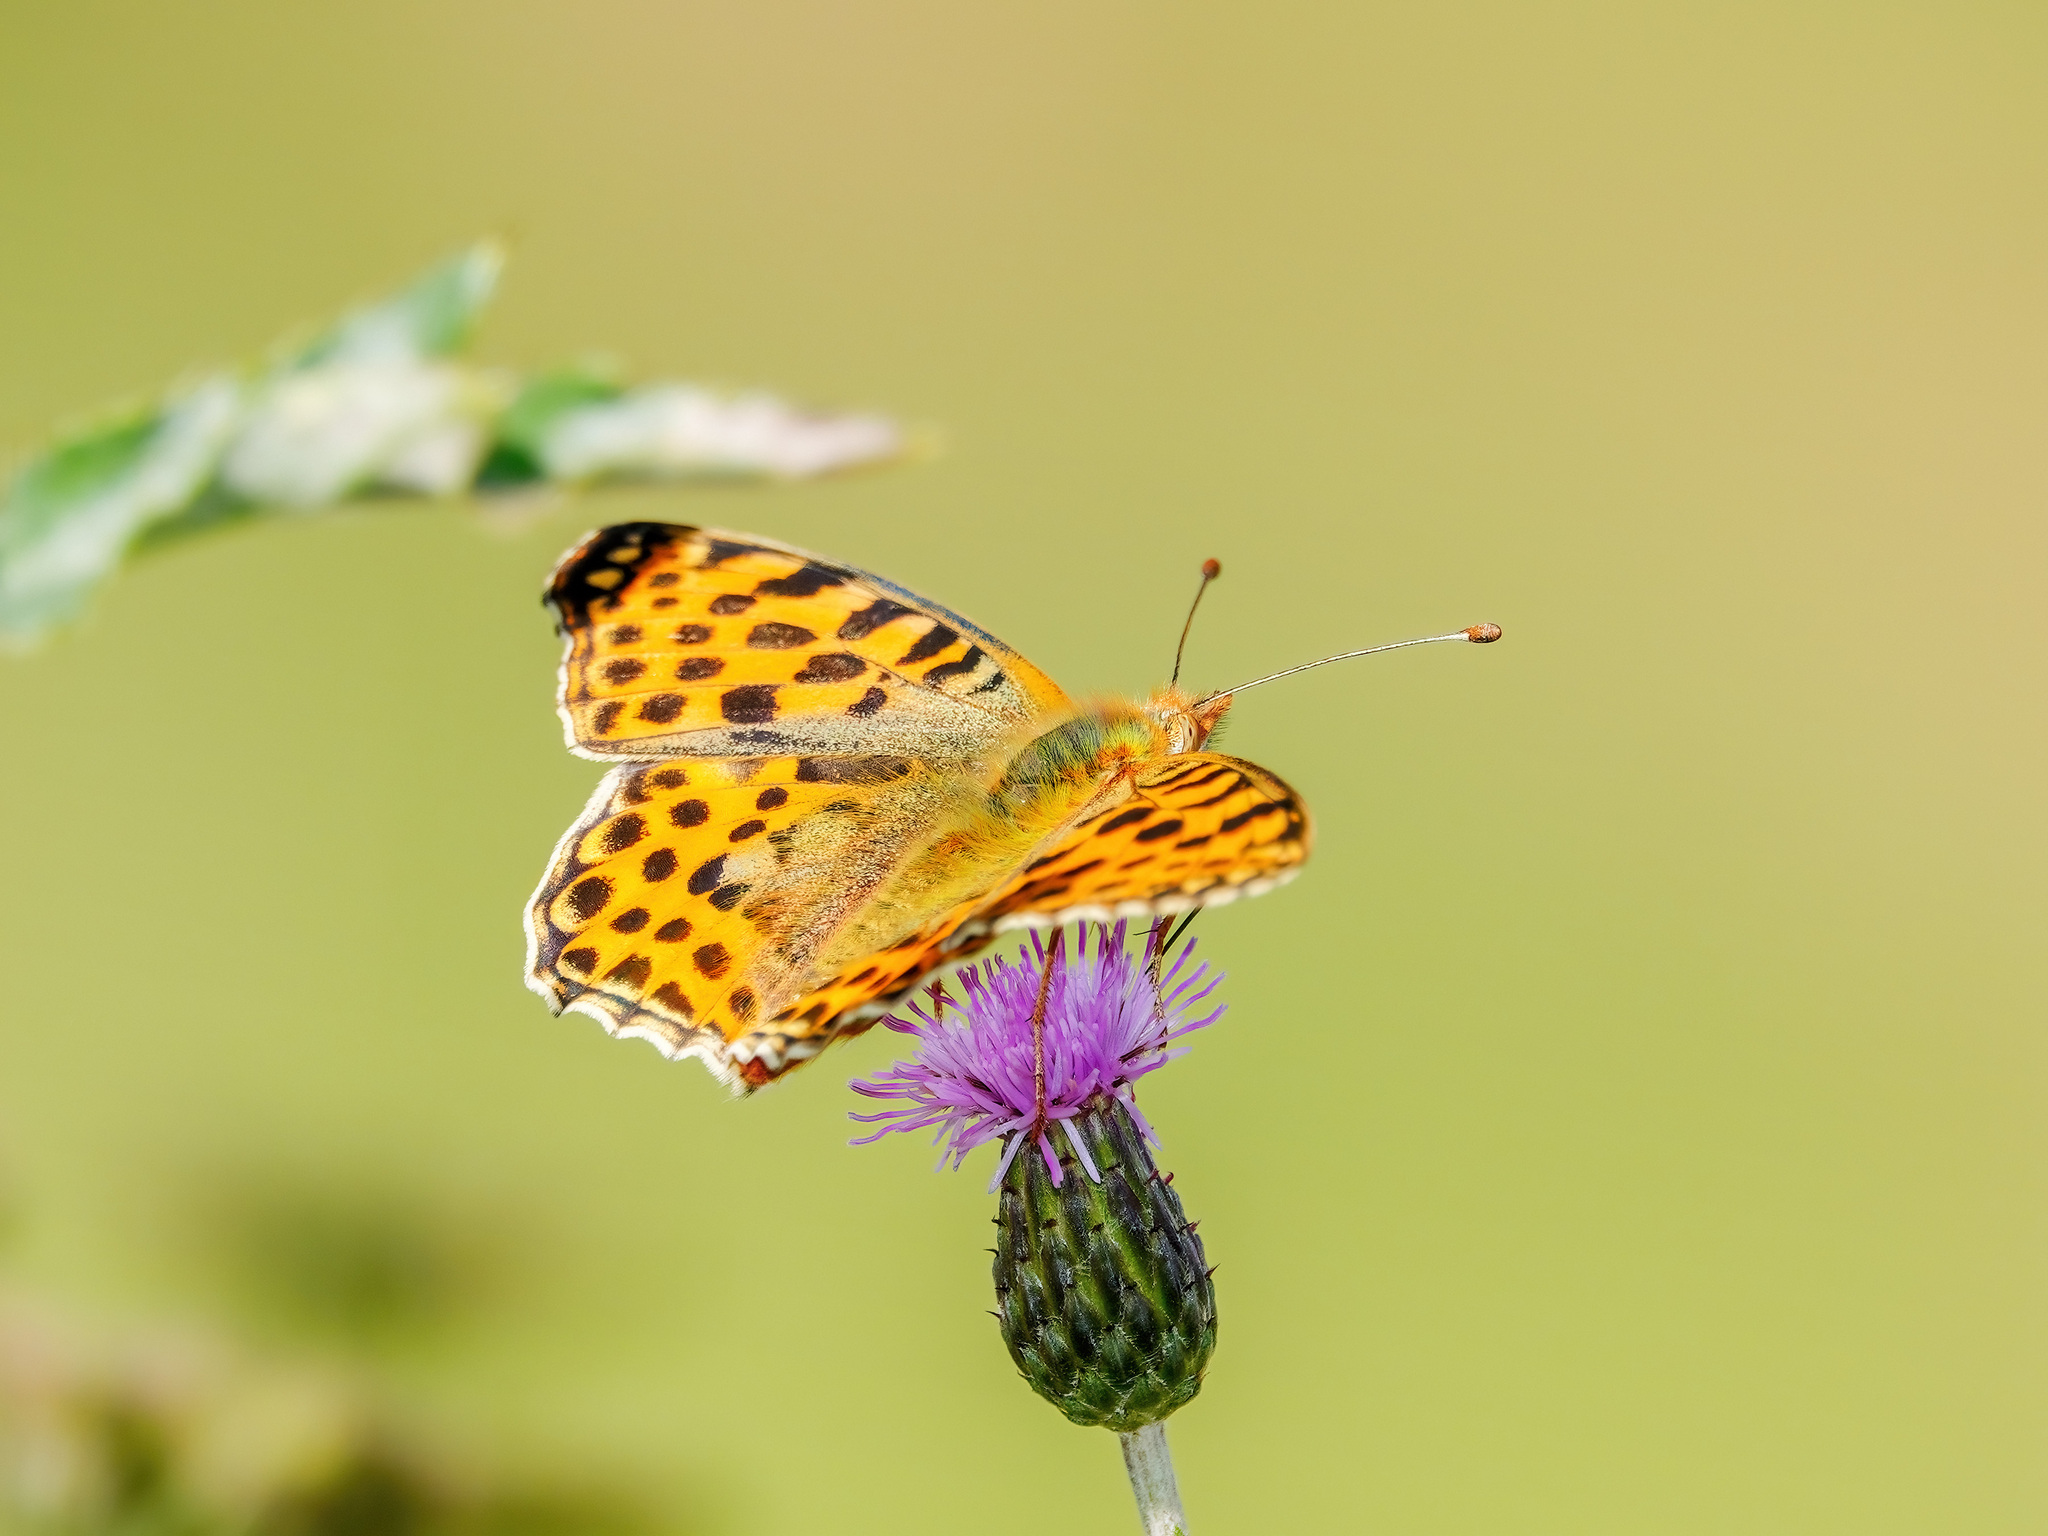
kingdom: Animalia
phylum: Arthropoda
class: Insecta
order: Lepidoptera
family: Nymphalidae
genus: Issoria
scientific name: Issoria lathonia
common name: Queen of spain fritillary
